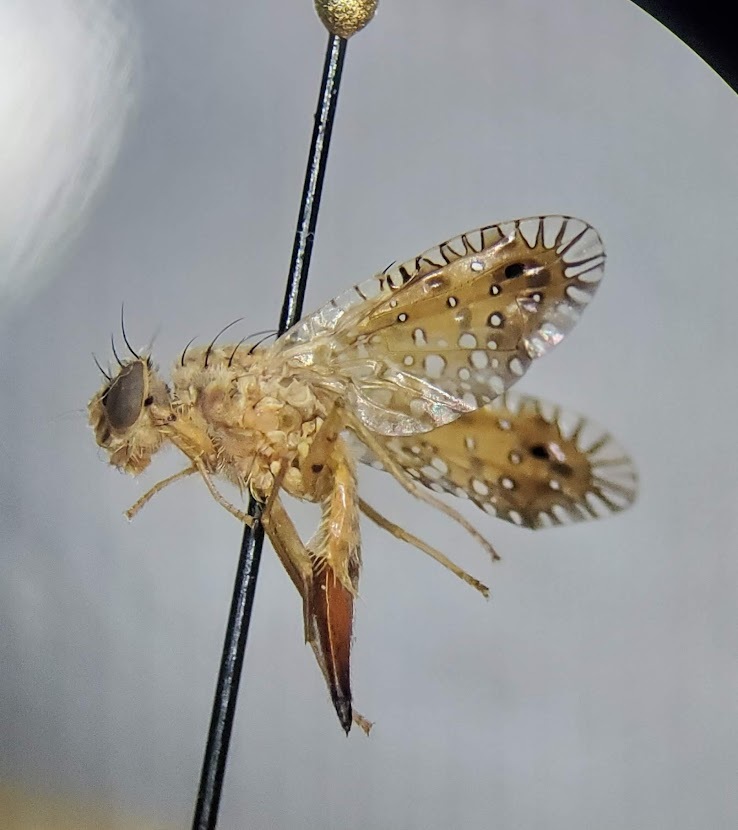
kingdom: Animalia
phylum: Arthropoda
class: Insecta
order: Diptera
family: Tephritidae
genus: Paracantha
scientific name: Paracantha culta
